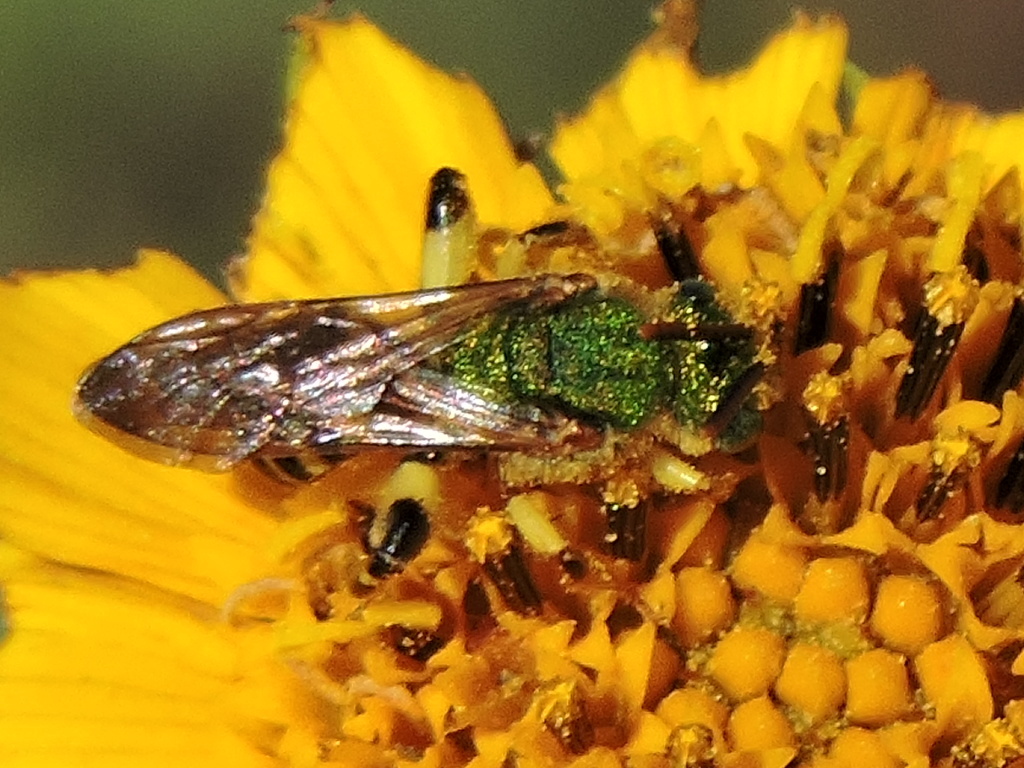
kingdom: Animalia
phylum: Arthropoda
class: Insecta
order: Hymenoptera
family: Halictidae
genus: Agapostemon
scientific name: Agapostemon splendens
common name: Brown-winged striped sweat bee
